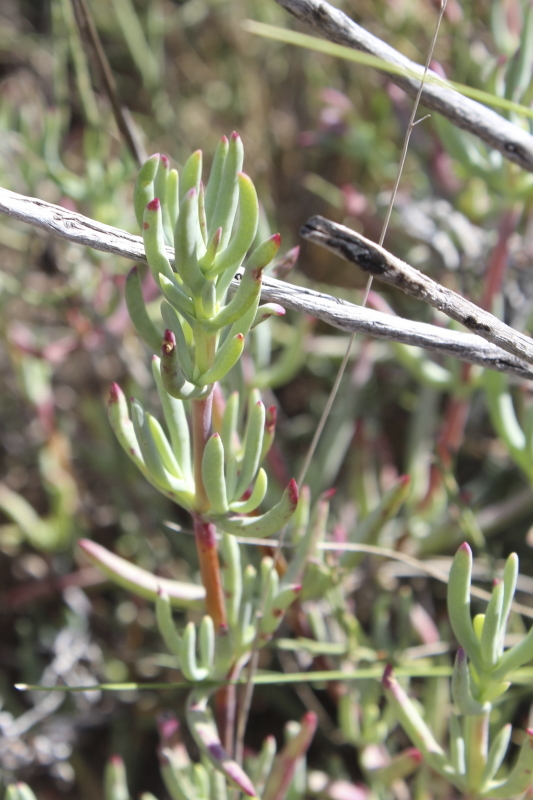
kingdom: Plantae
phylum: Tracheophyta
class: Magnoliopsida
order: Caryophyllales
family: Aizoaceae
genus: Lampranthus
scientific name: Lampranthus affinis
